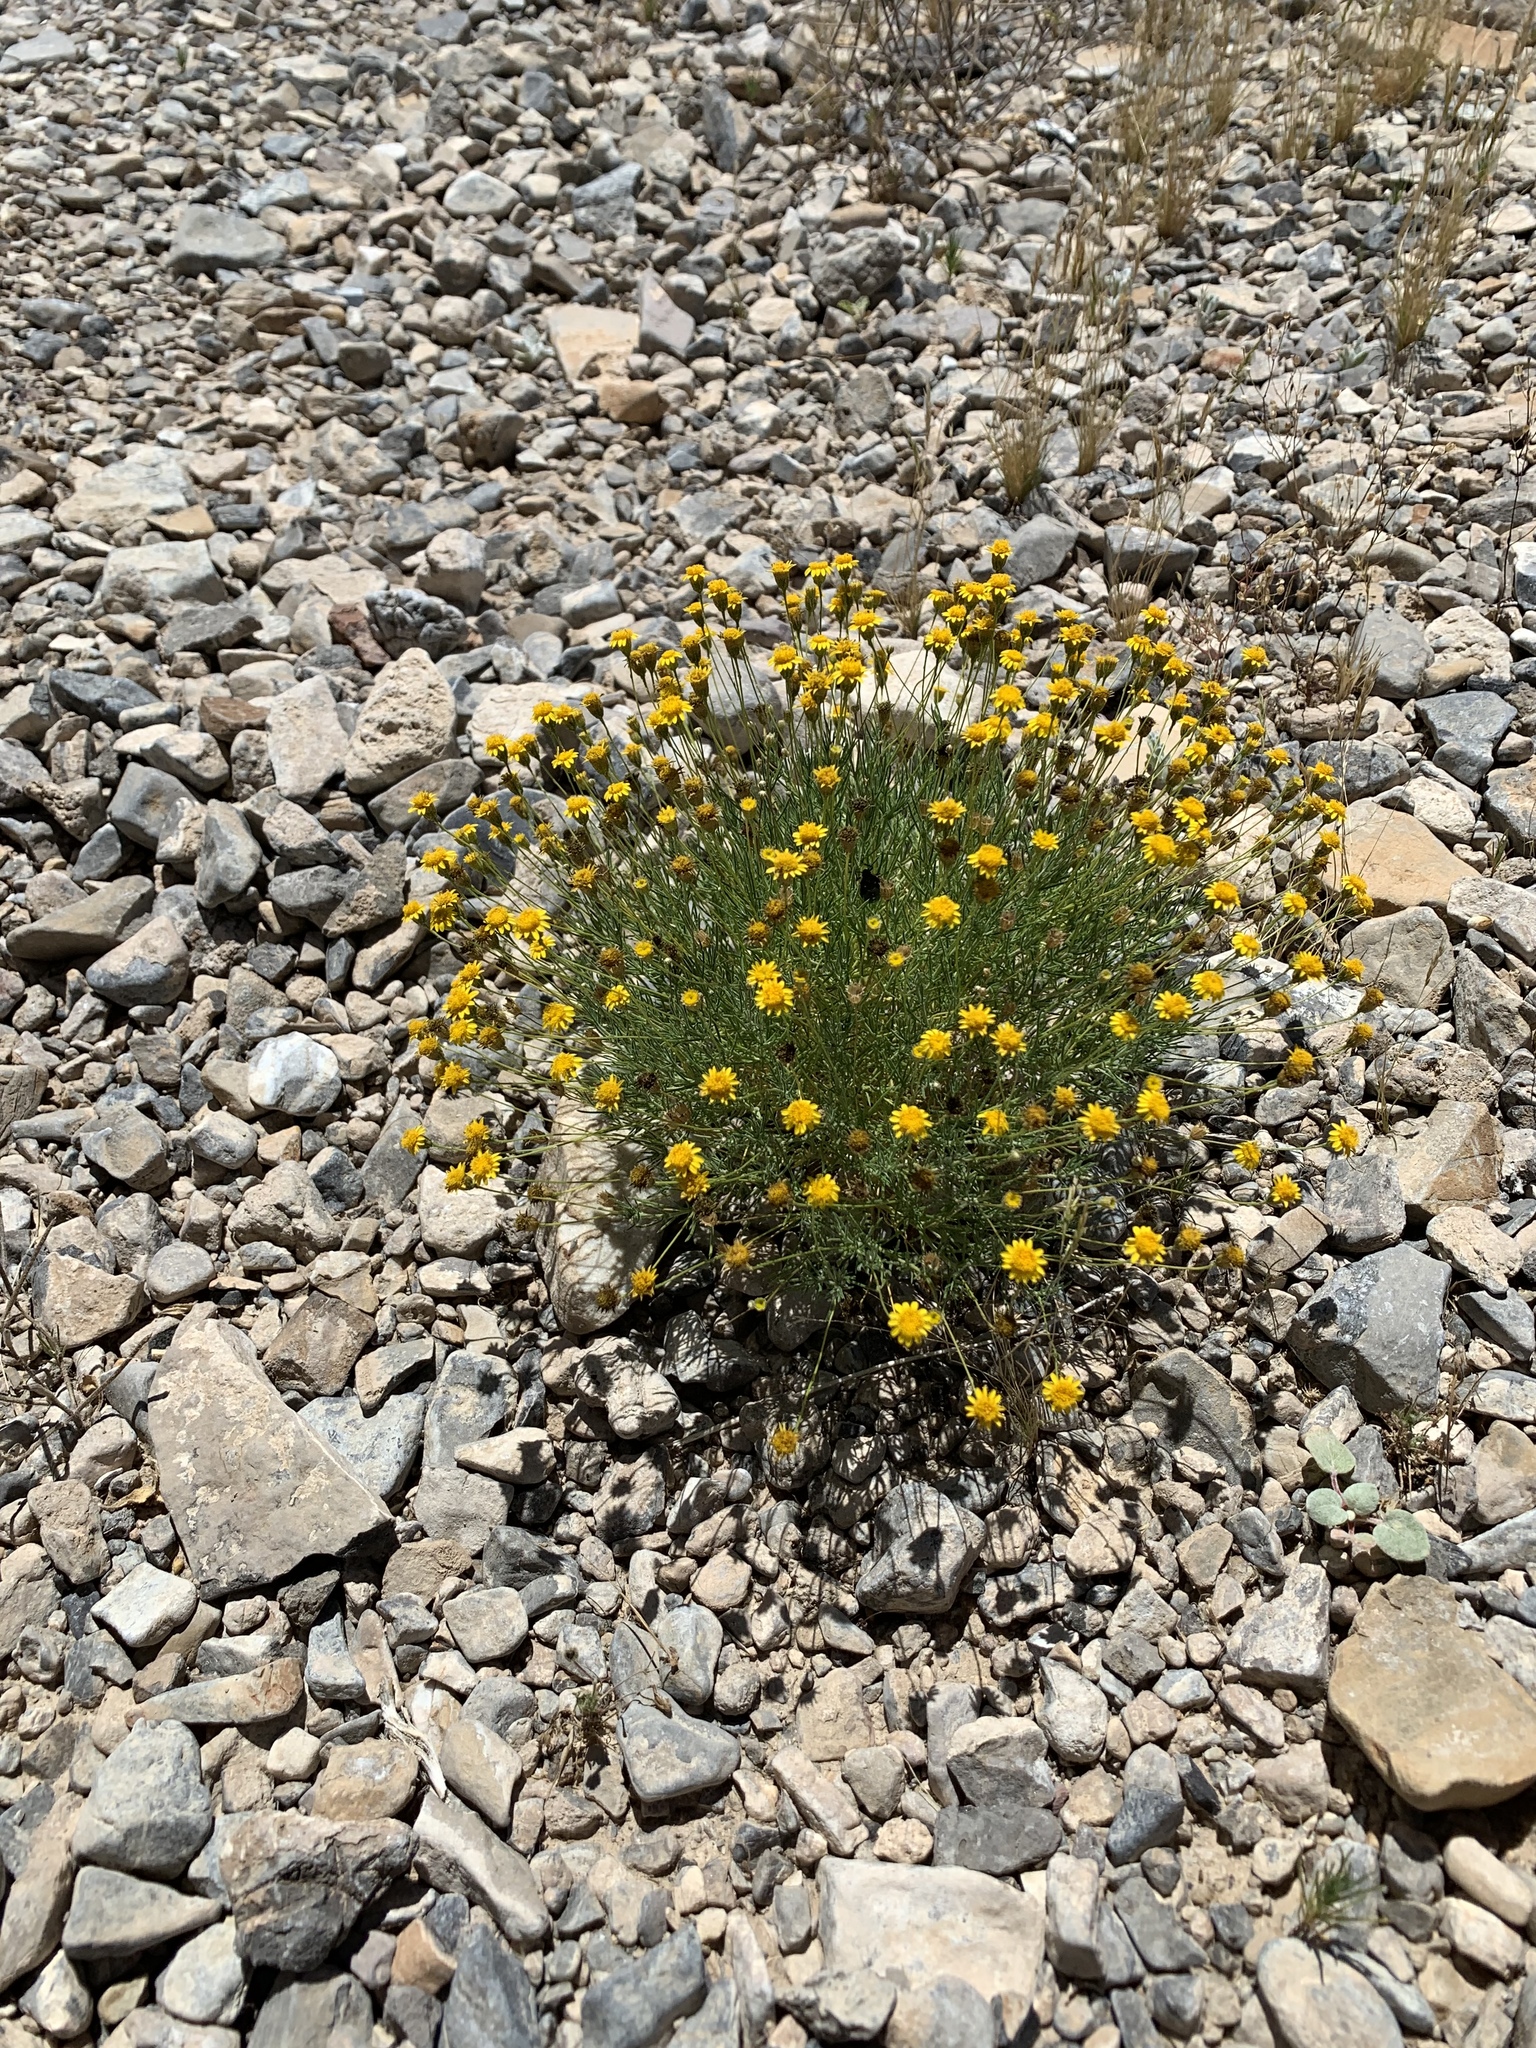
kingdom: Plantae
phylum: Tracheophyta
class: Magnoliopsida
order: Asterales
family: Asteraceae
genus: Thymophylla
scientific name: Thymophylla pentachaeta
